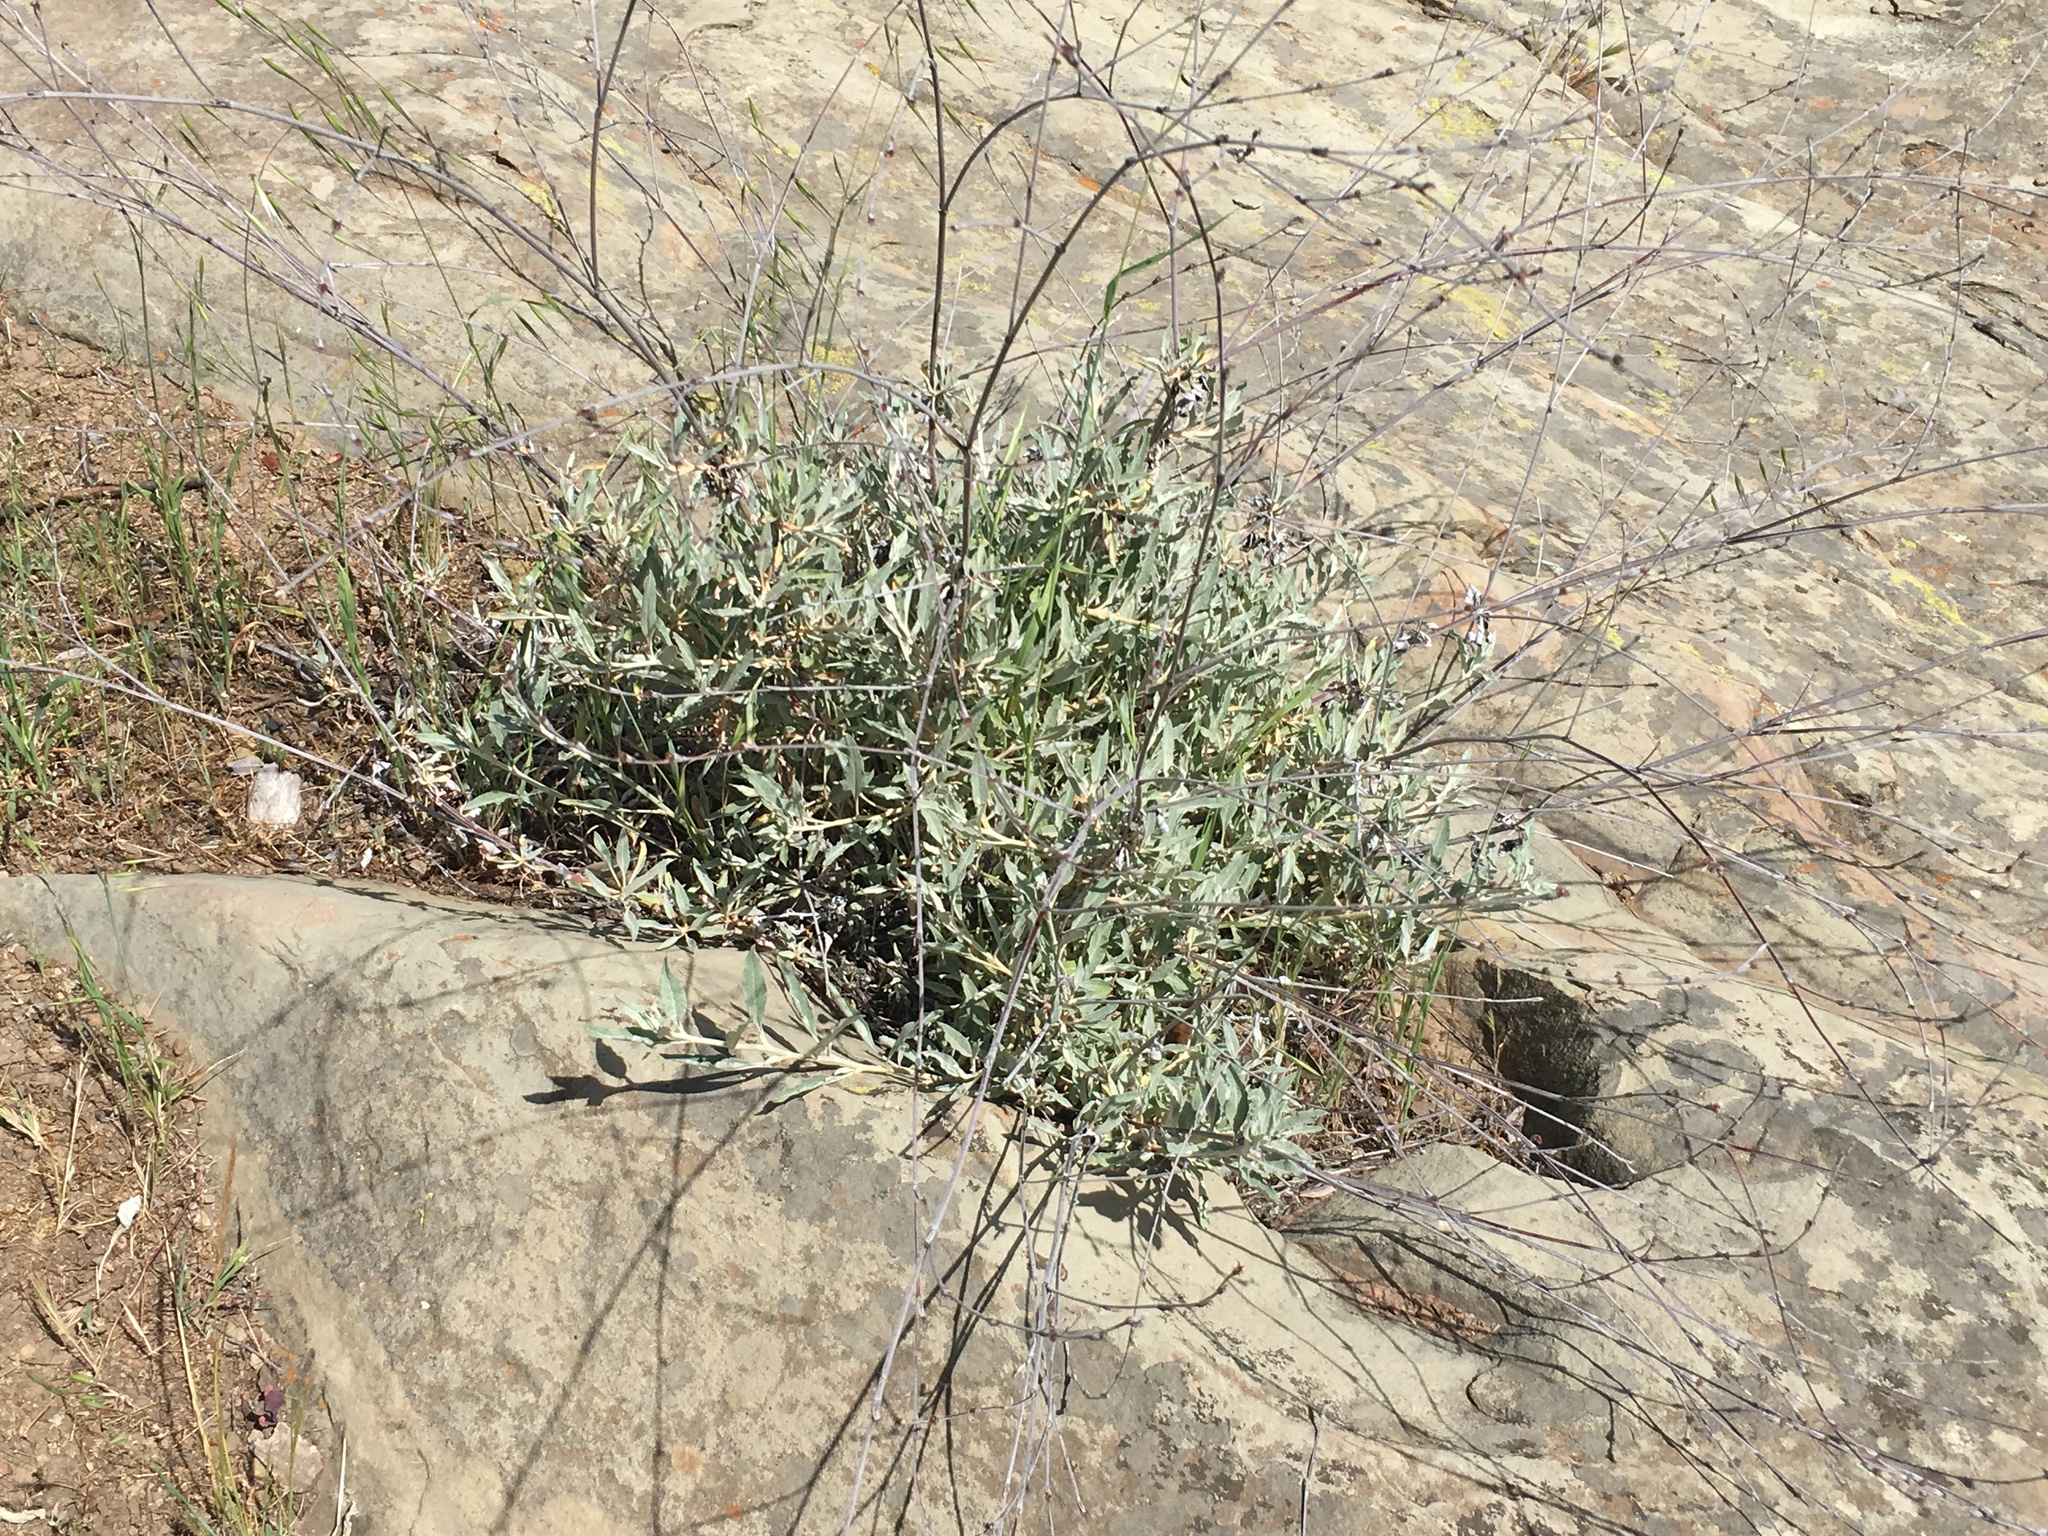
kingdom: Plantae
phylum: Tracheophyta
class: Magnoliopsida
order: Caryophyllales
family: Polygonaceae
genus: Eriogonum
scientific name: Eriogonum elongatum
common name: Long-stem wild buckwheat
